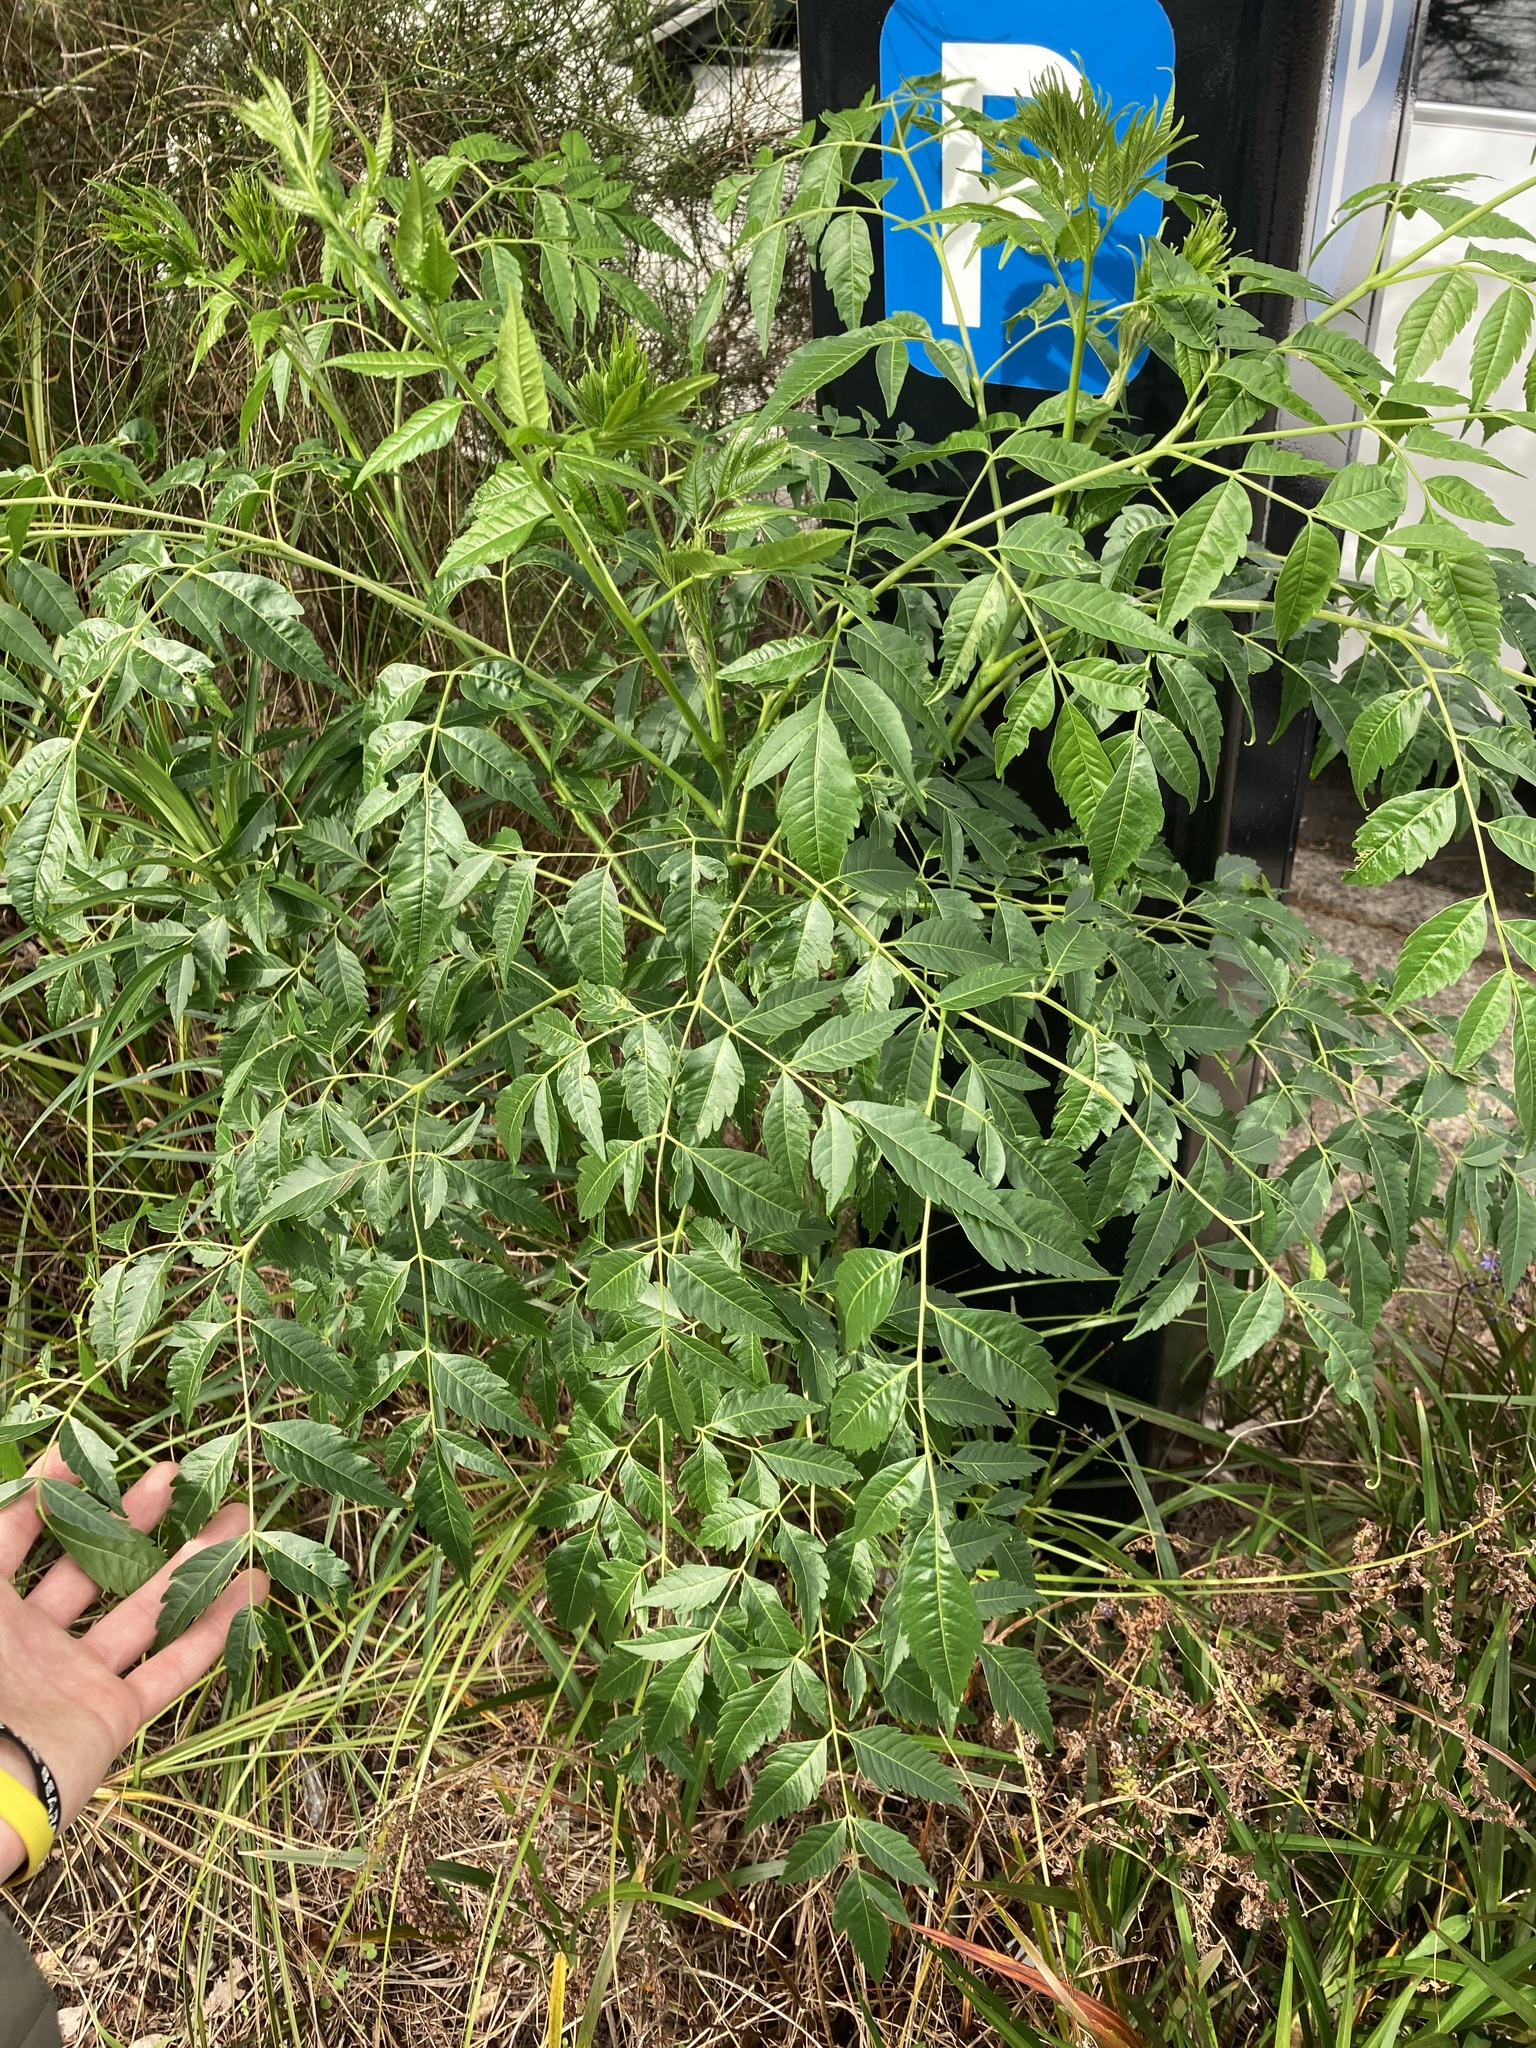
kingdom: Plantae
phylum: Tracheophyta
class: Magnoliopsida
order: Sapindales
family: Meliaceae
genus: Melia
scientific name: Melia azedarach
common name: Chinaberrytree
